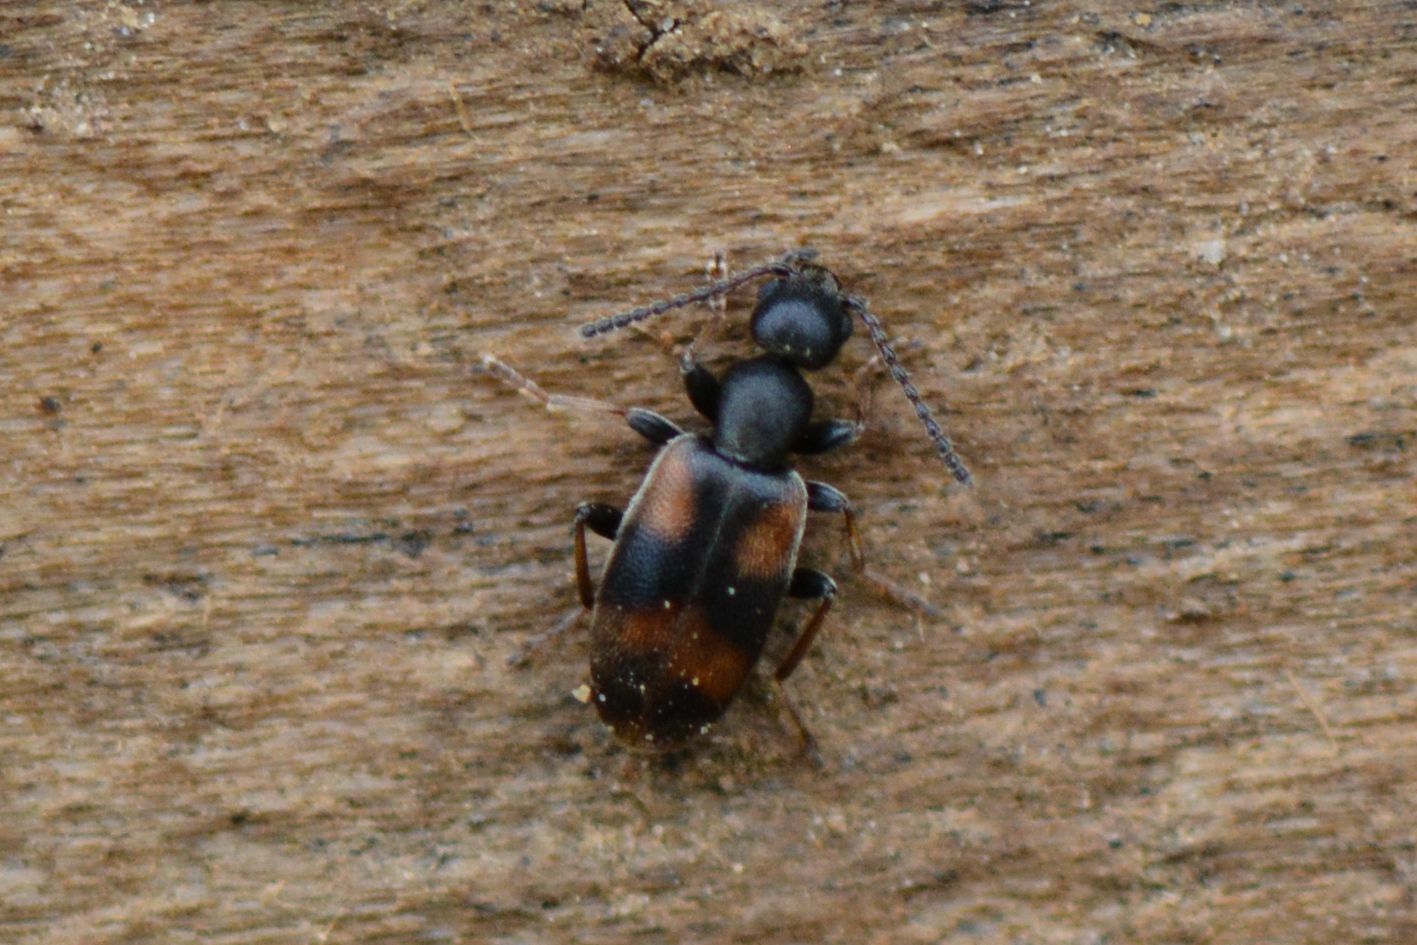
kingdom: Animalia
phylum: Arthropoda
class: Insecta
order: Coleoptera
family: Anthicidae
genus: Anthicus
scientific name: Anthicus antherinus
